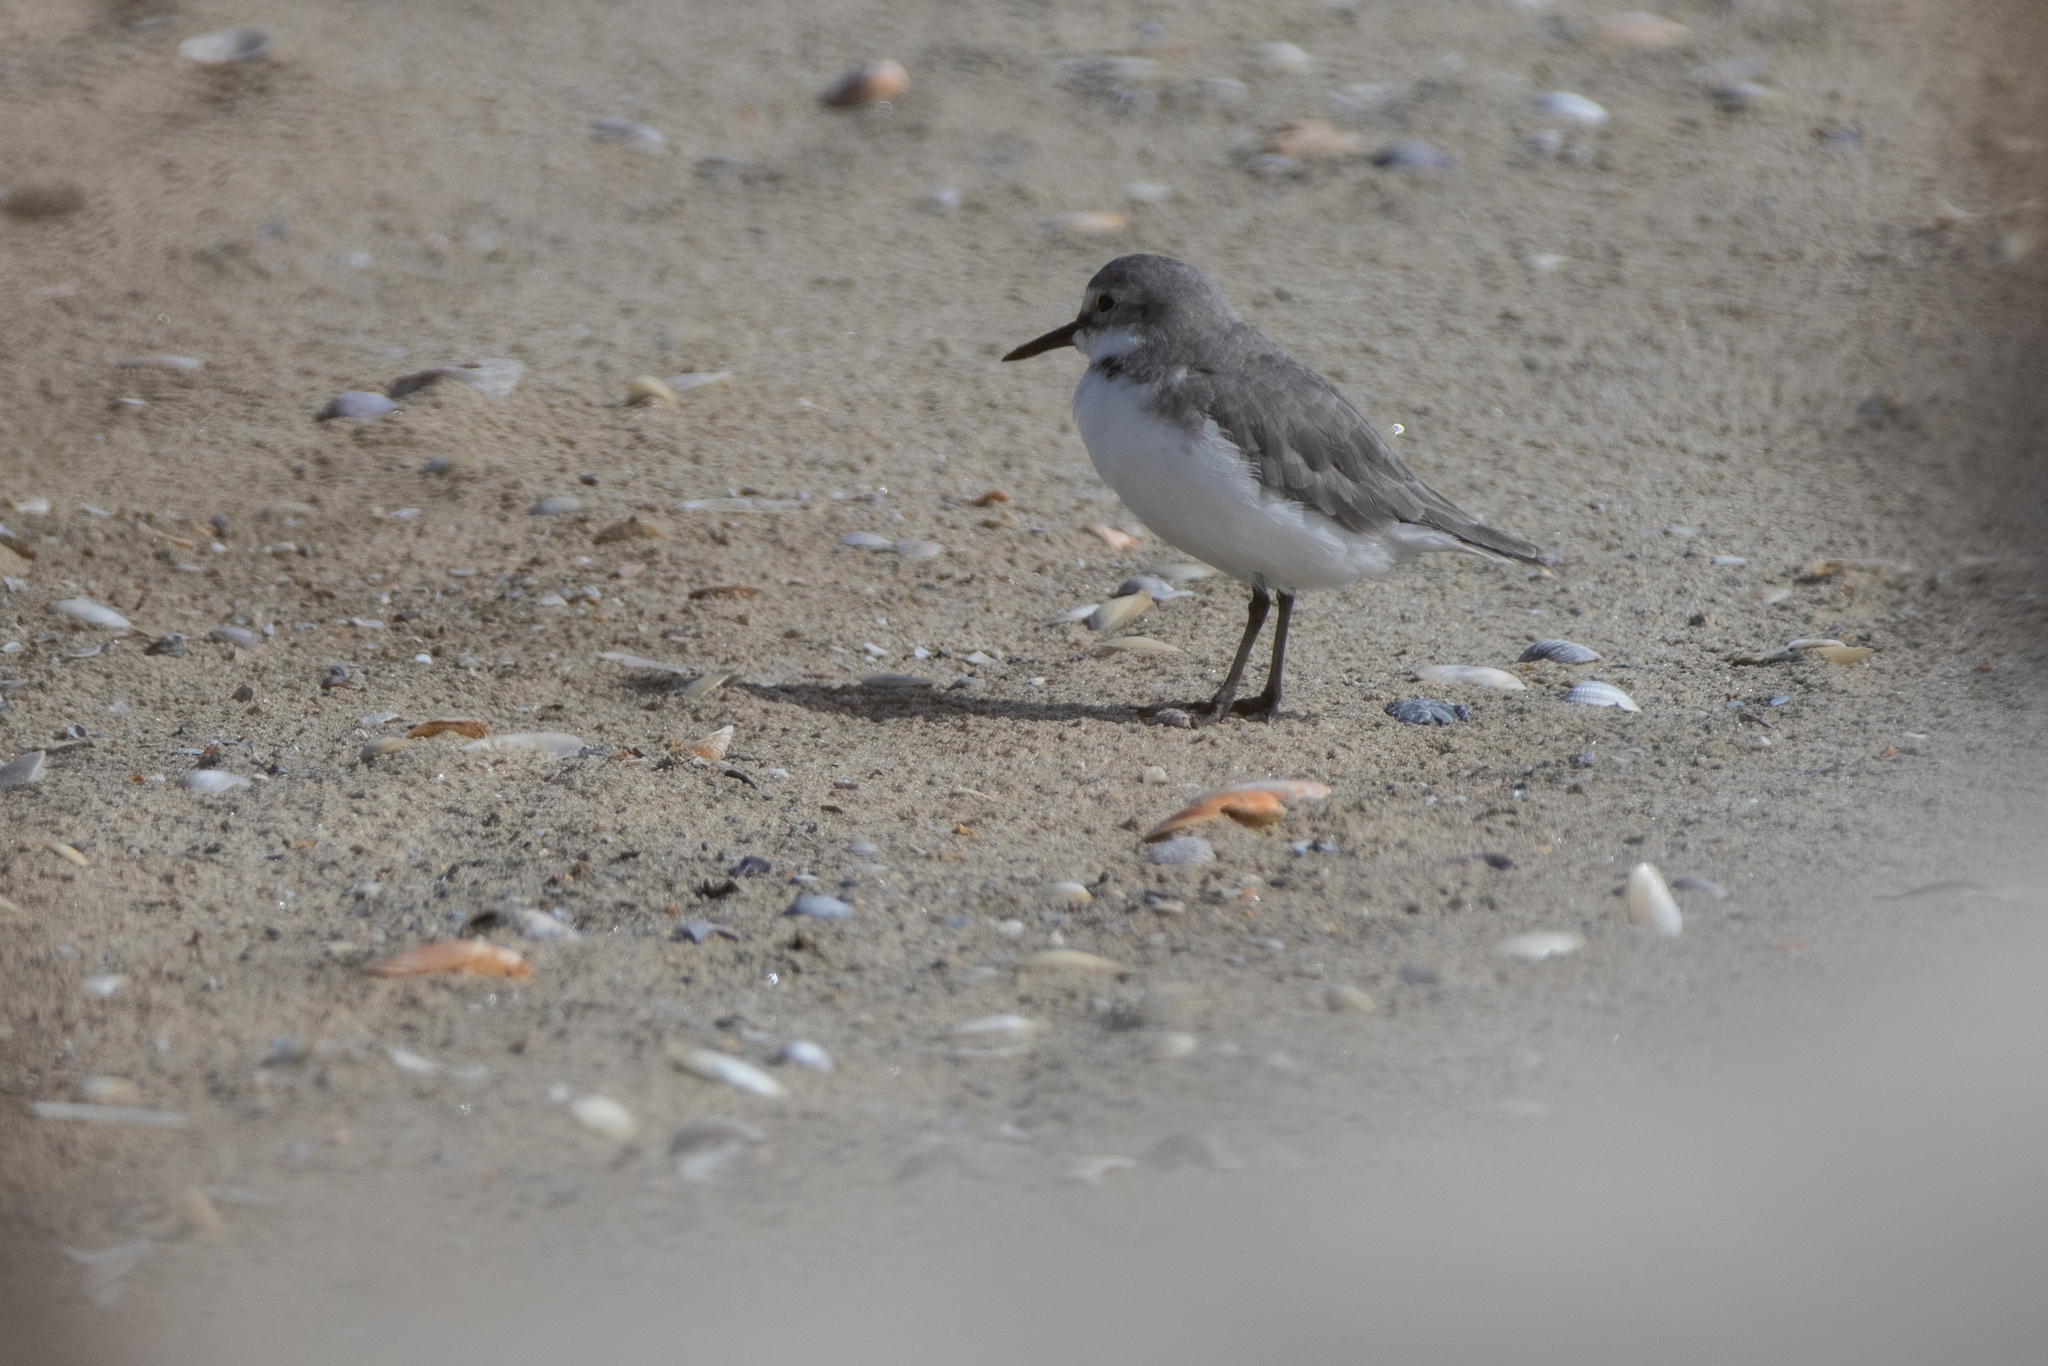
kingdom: Animalia
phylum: Chordata
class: Aves
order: Charadriiformes
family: Charadriidae
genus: Anarhynchus
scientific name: Anarhynchus frontalis
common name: Wrybill
